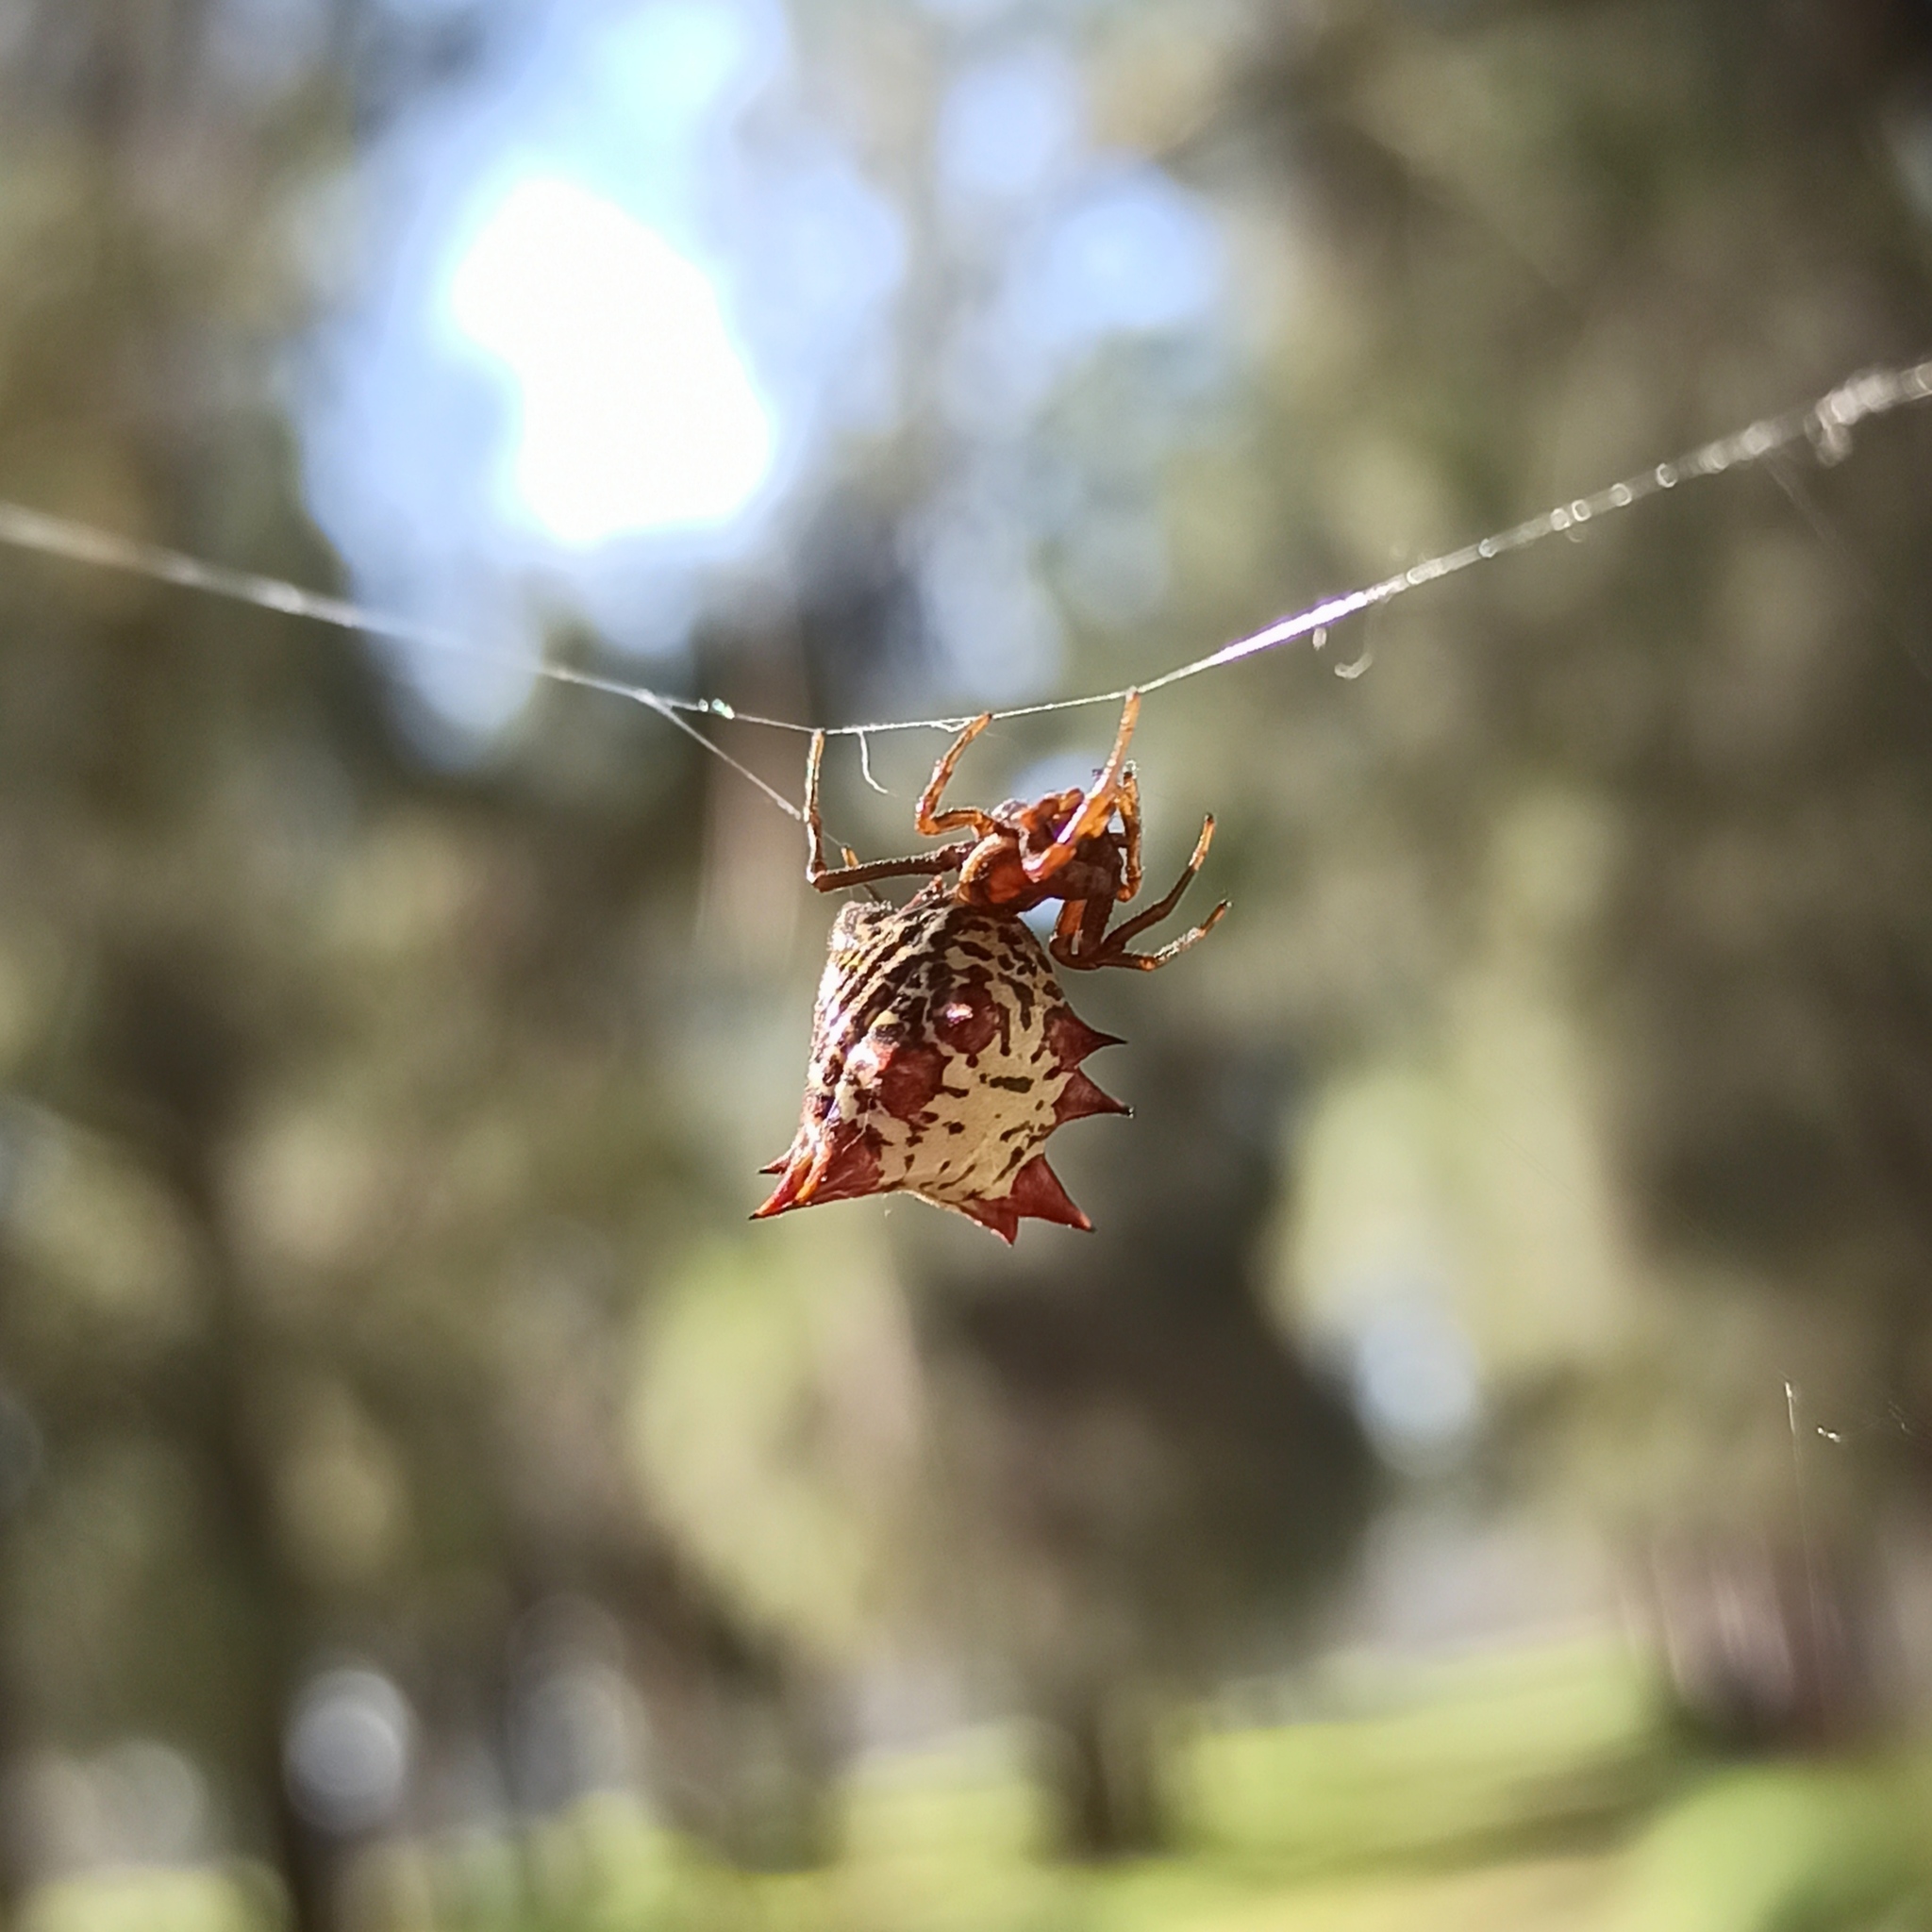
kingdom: Animalia
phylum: Arthropoda
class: Arachnida
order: Araneae
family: Araneidae
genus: Micrathena
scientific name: Micrathena gracilis
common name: Orb weavers
